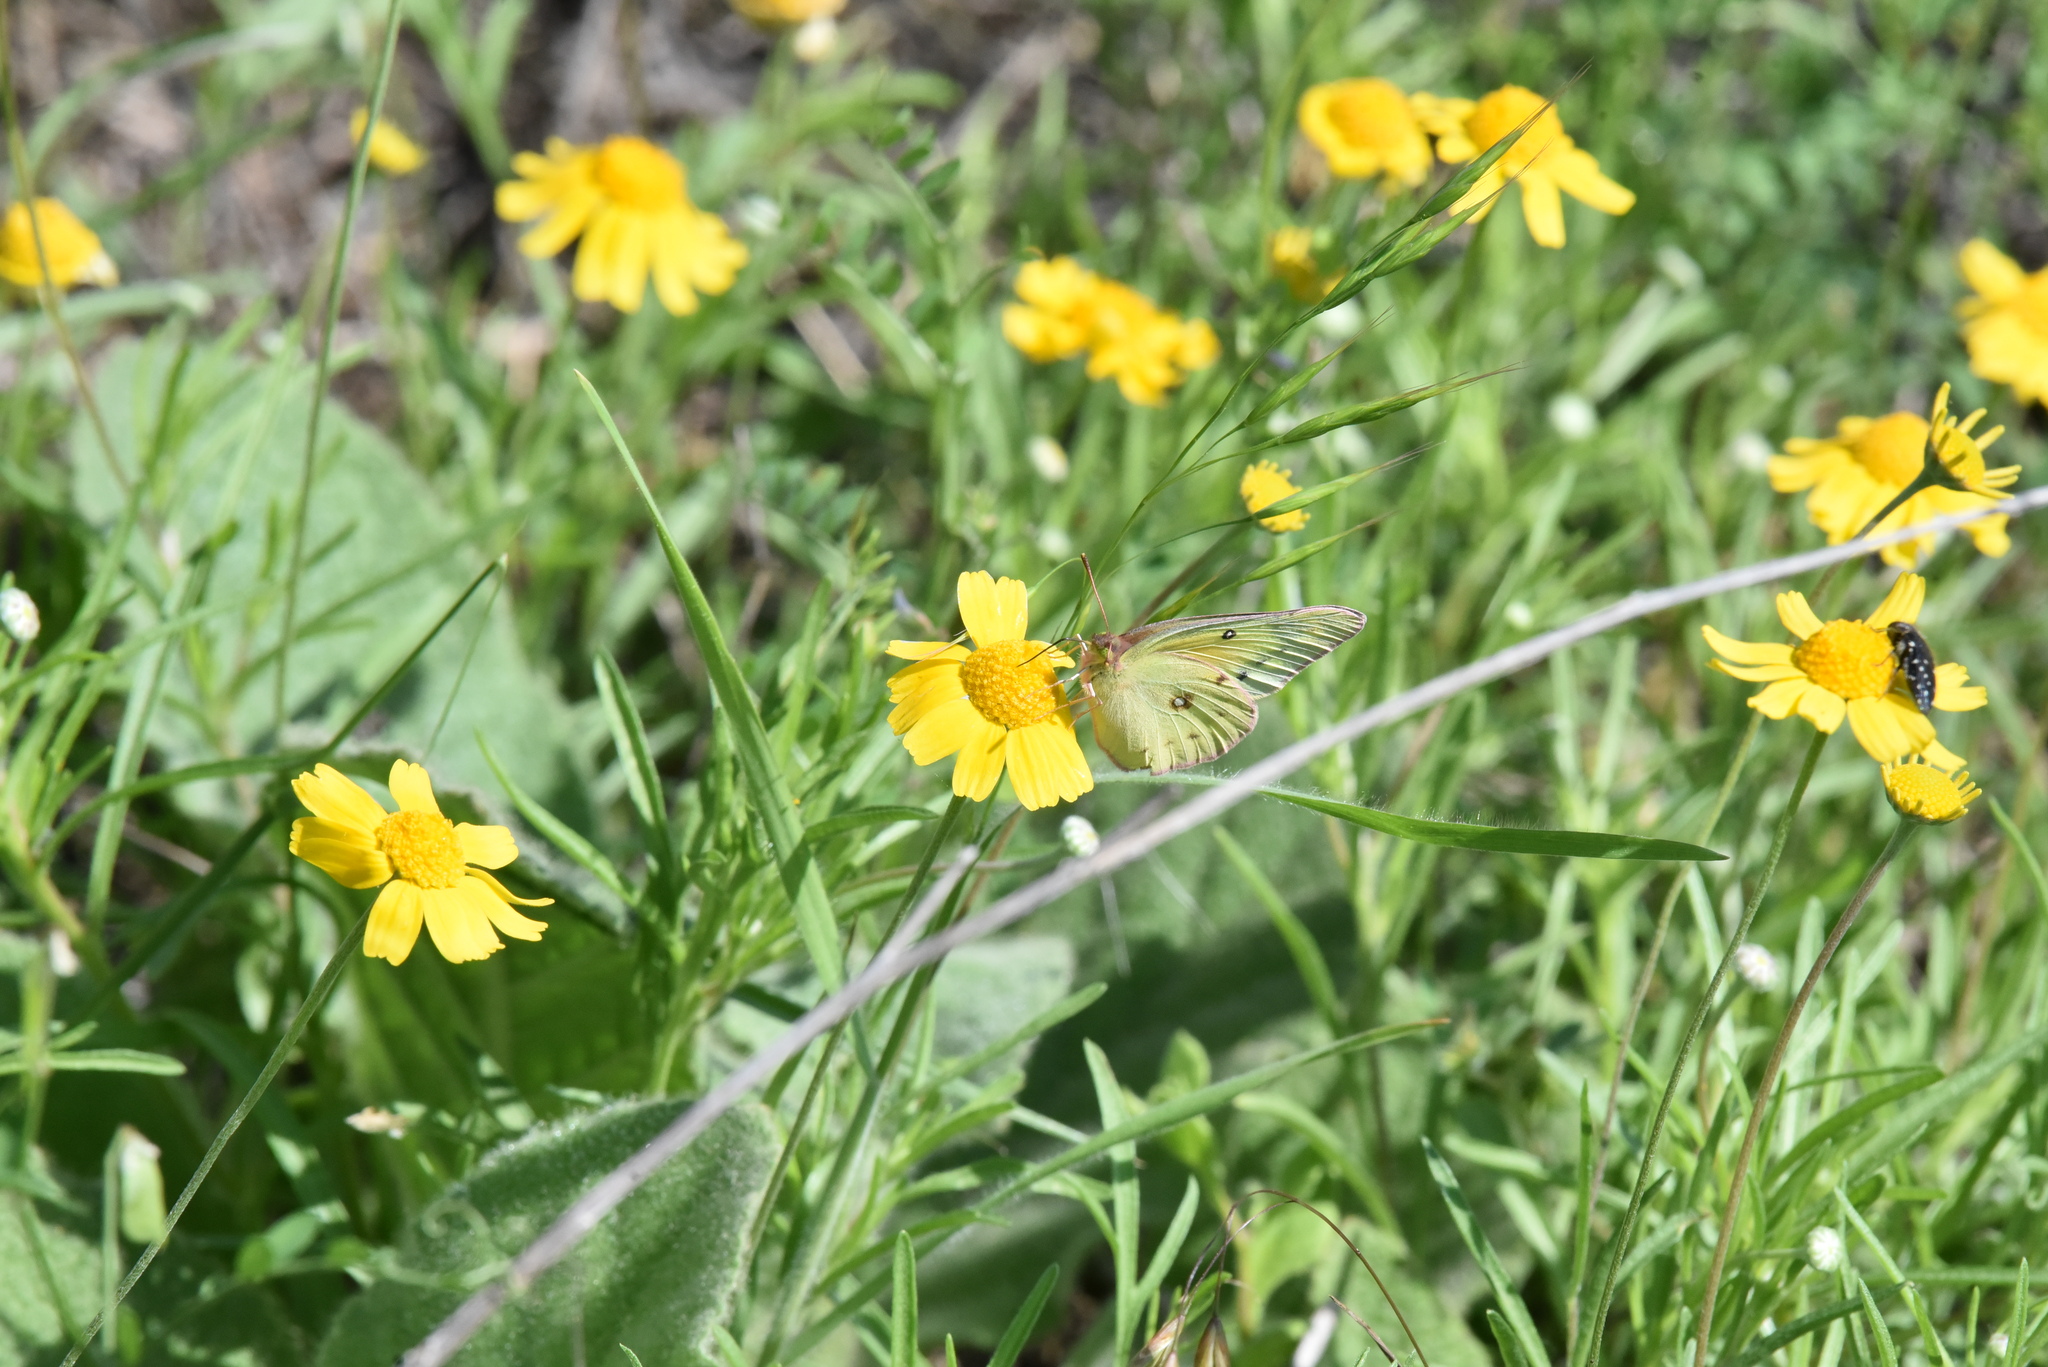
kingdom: Animalia
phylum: Arthropoda
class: Insecta
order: Lepidoptera
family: Pieridae
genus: Colias
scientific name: Colias eurytheme
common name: Alfalfa butterfly
